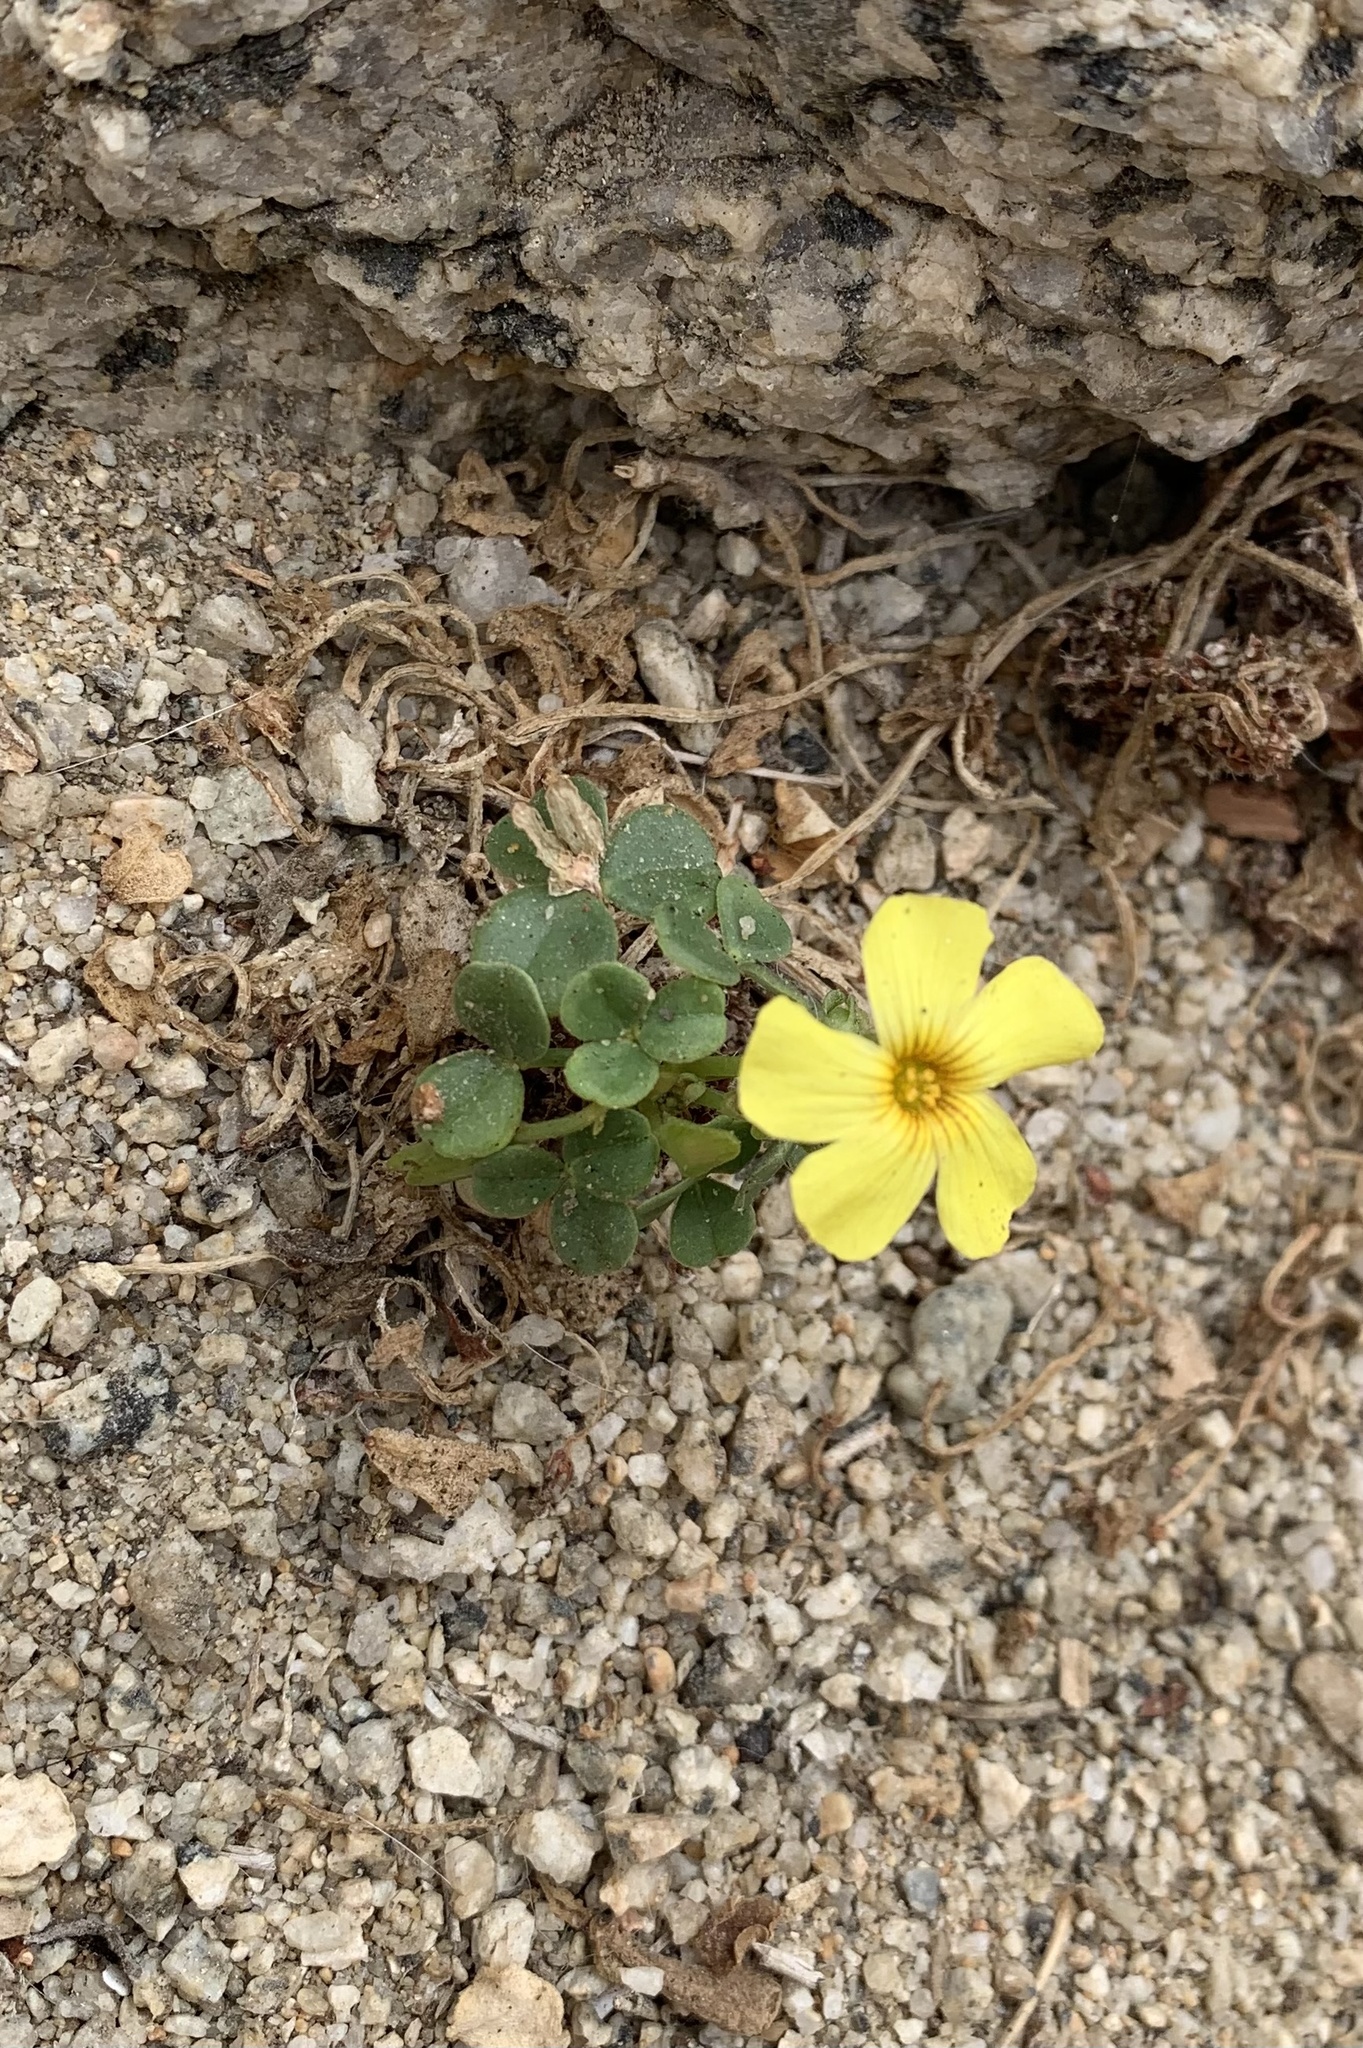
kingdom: Plantae
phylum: Tracheophyta
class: Magnoliopsida
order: Oxalidales
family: Oxalidaceae
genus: Oxalis
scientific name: Oxalis megalorrhiza
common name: Fleshy yellow-sorrel
